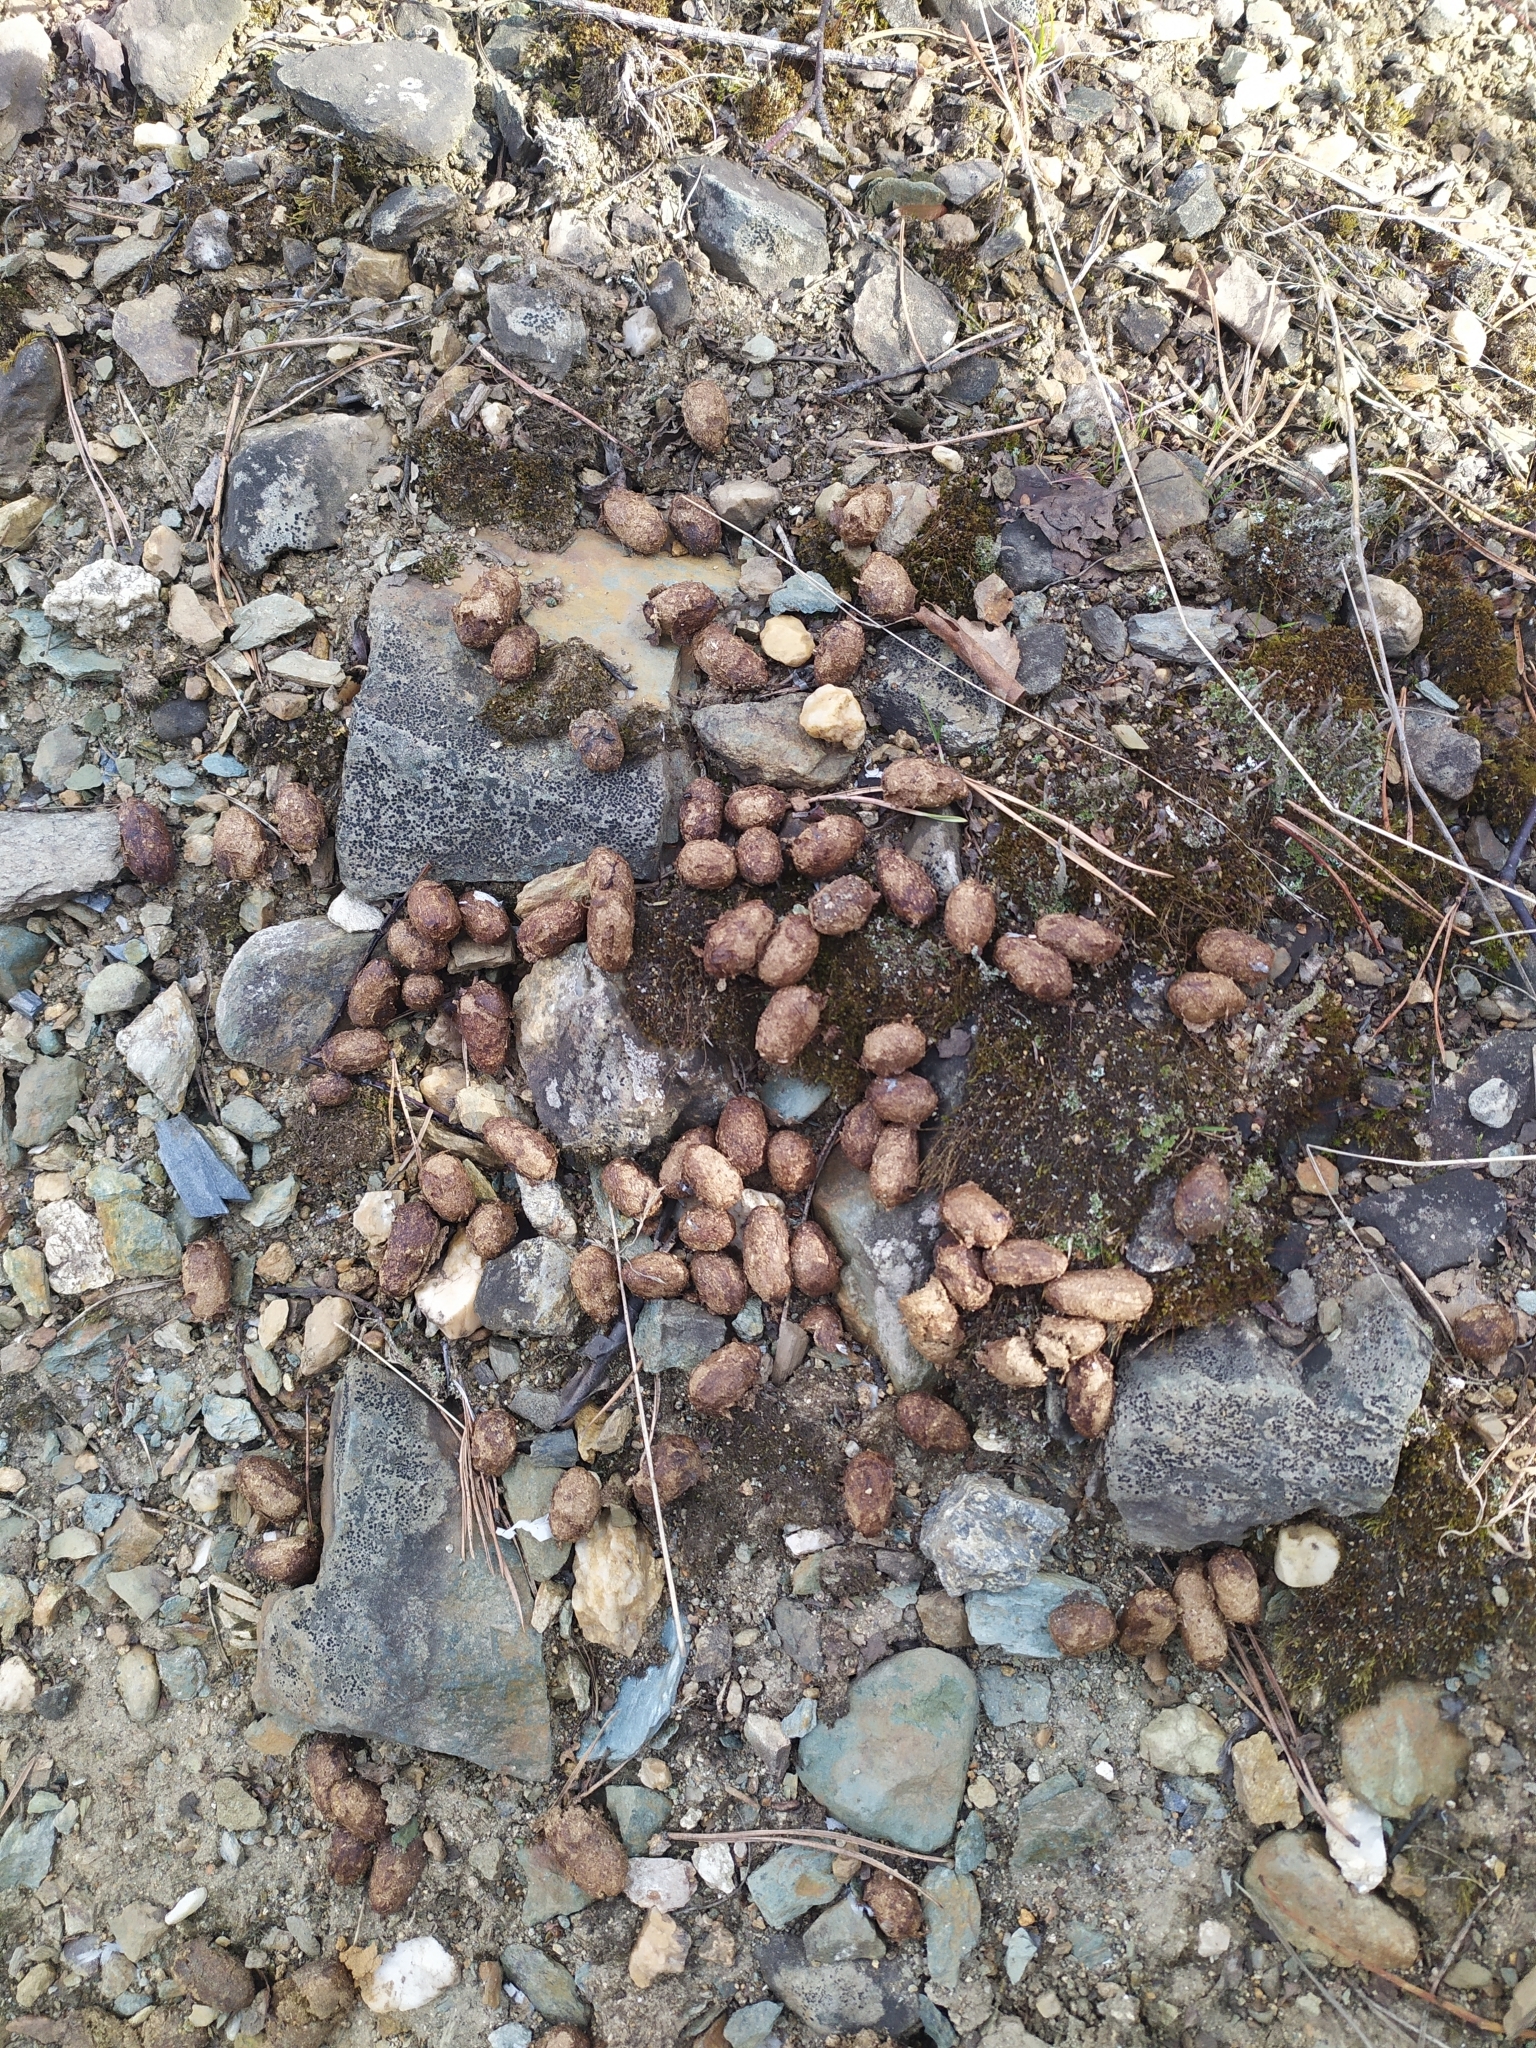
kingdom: Animalia
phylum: Chordata
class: Mammalia
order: Artiodactyla
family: Cervidae
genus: Alces
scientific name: Alces alces
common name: Moose
